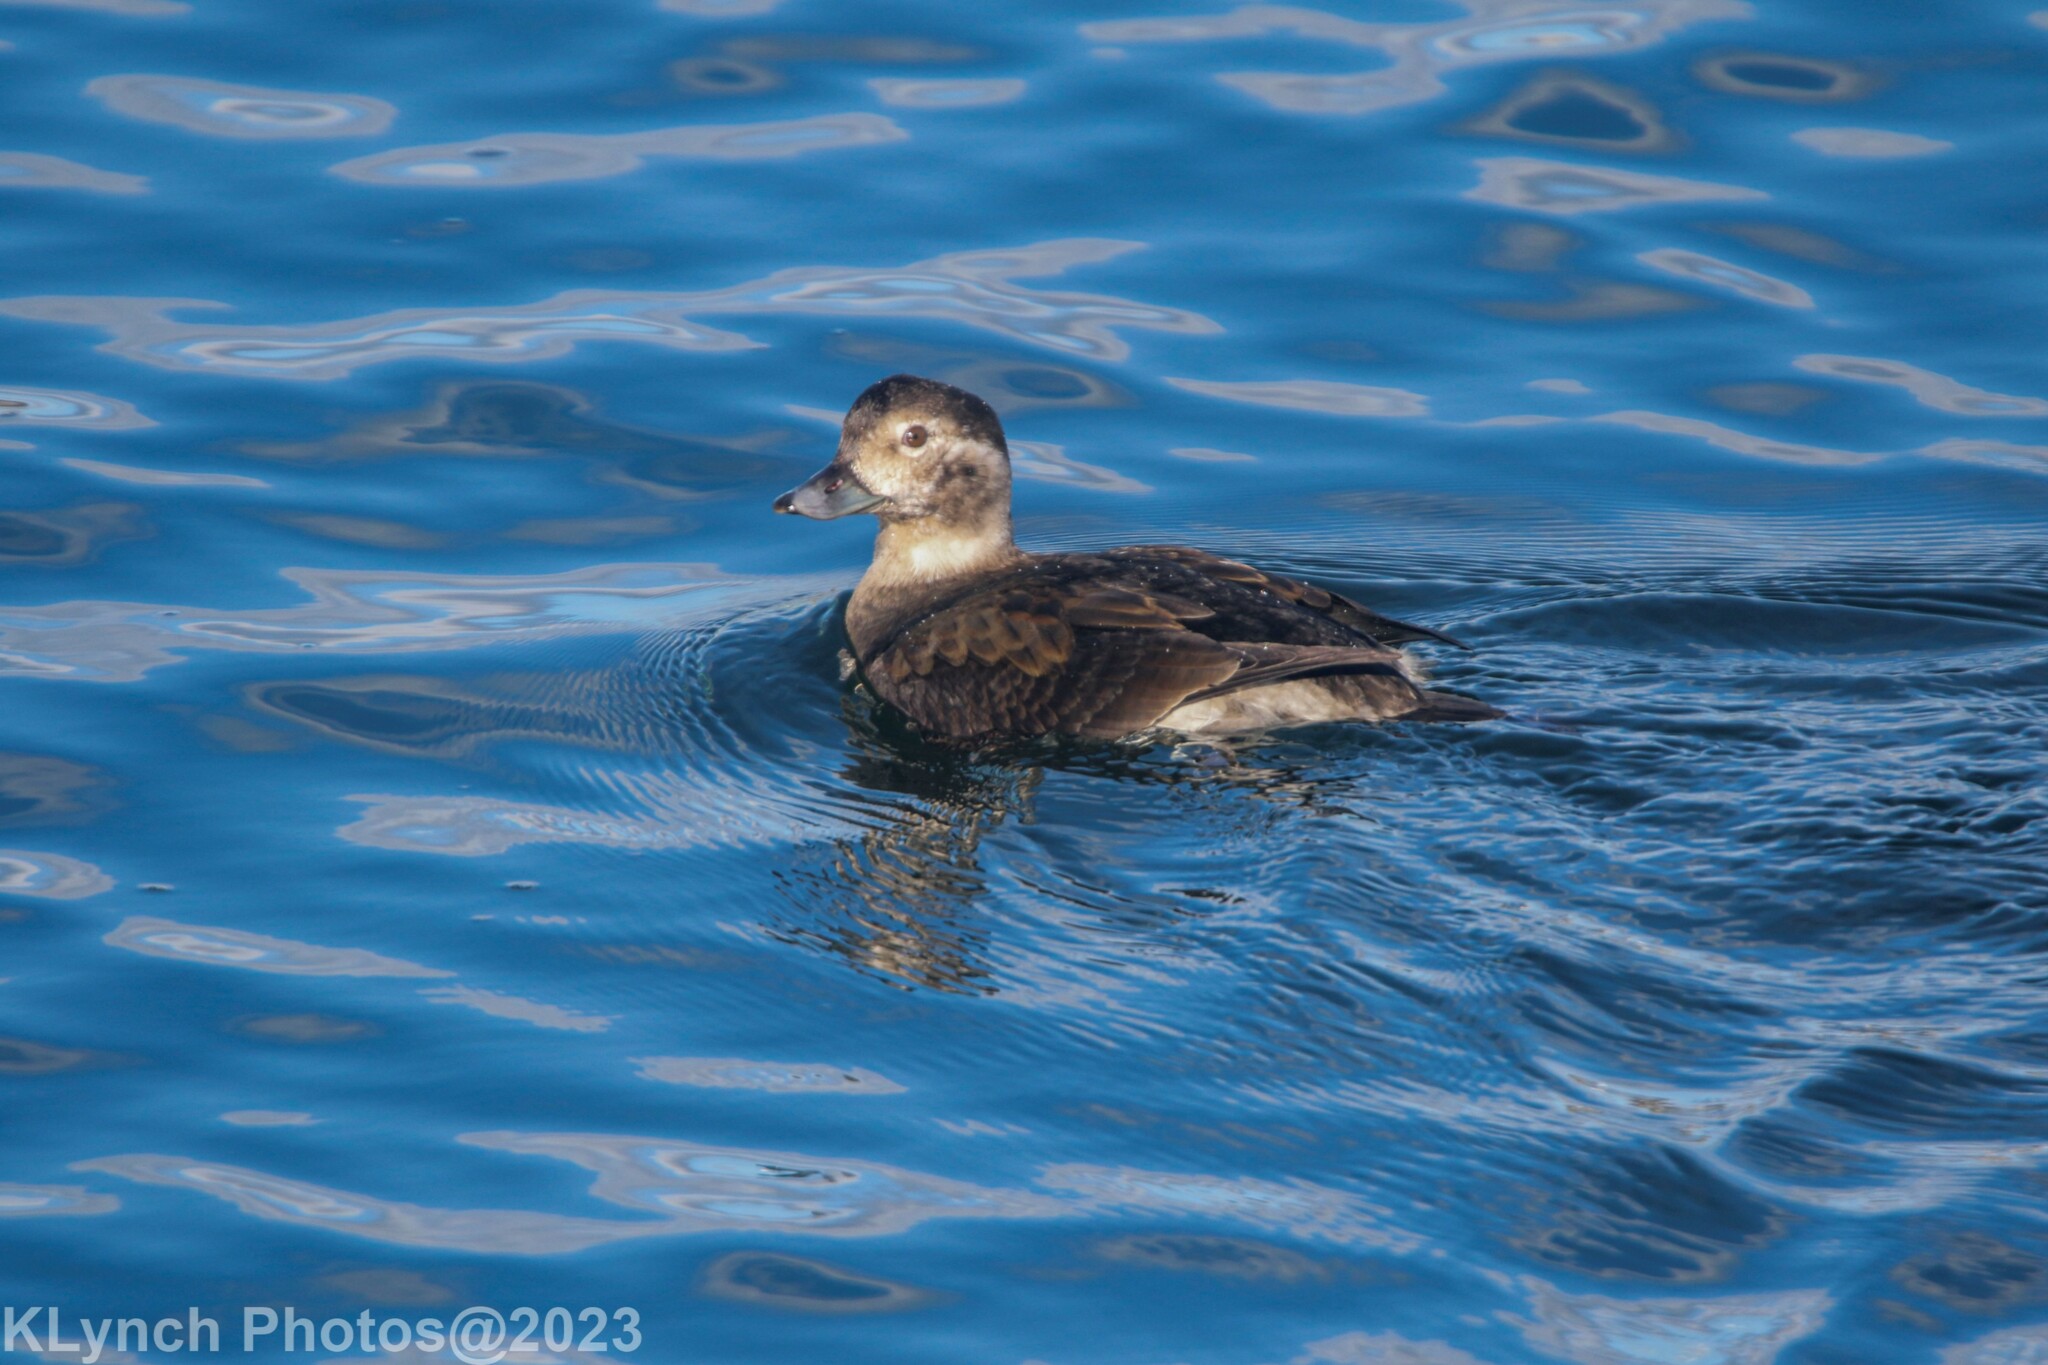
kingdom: Animalia
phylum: Chordata
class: Aves
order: Anseriformes
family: Anatidae
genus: Clangula
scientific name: Clangula hyemalis
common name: Long-tailed duck
